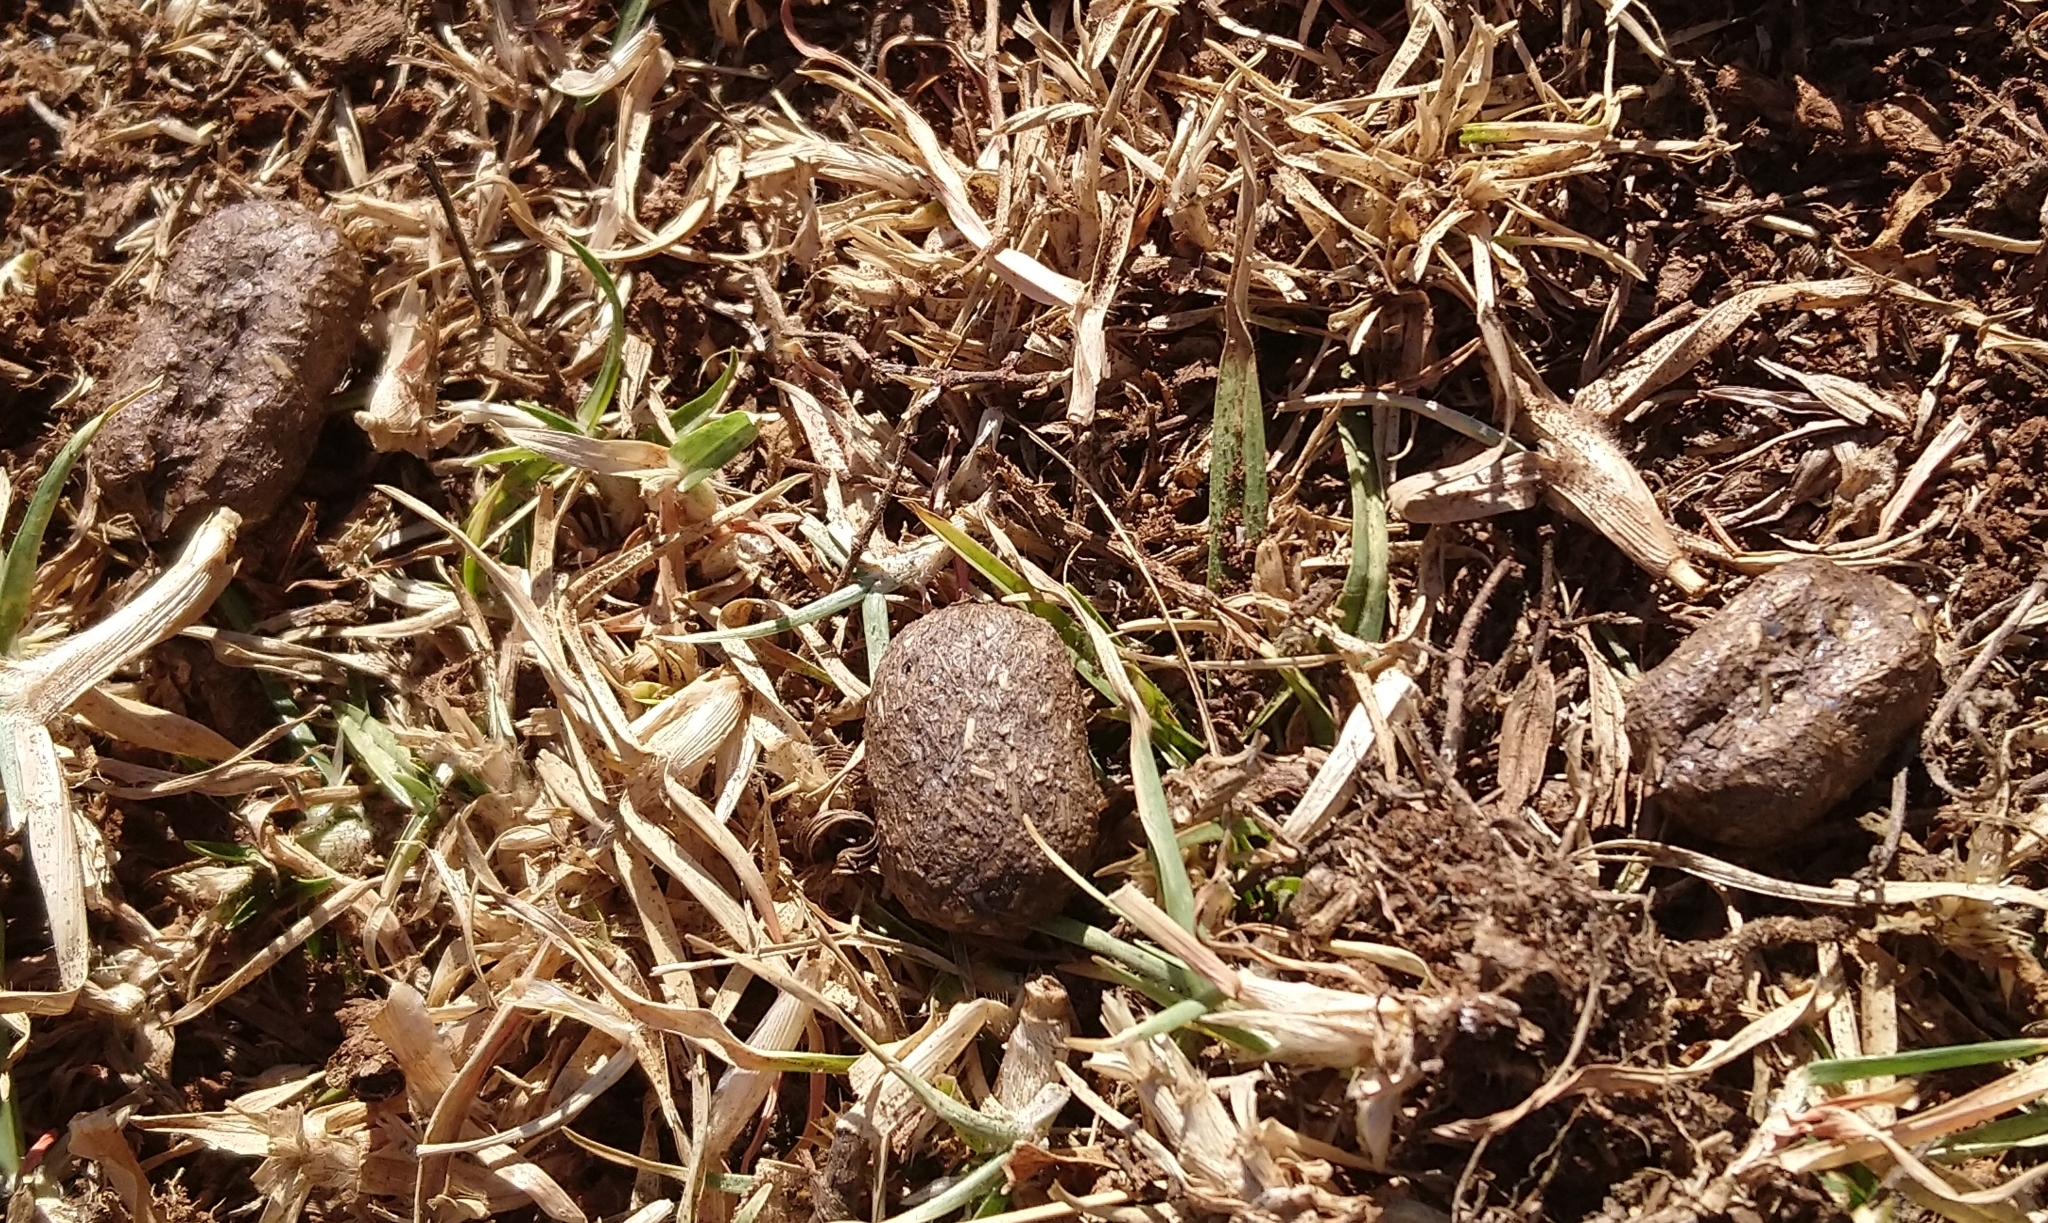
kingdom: Animalia
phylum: Chordata
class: Mammalia
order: Rodentia
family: Thryonomyidae
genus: Thryonomys
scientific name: Thryonomys swinderianus
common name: Greater cane rat
